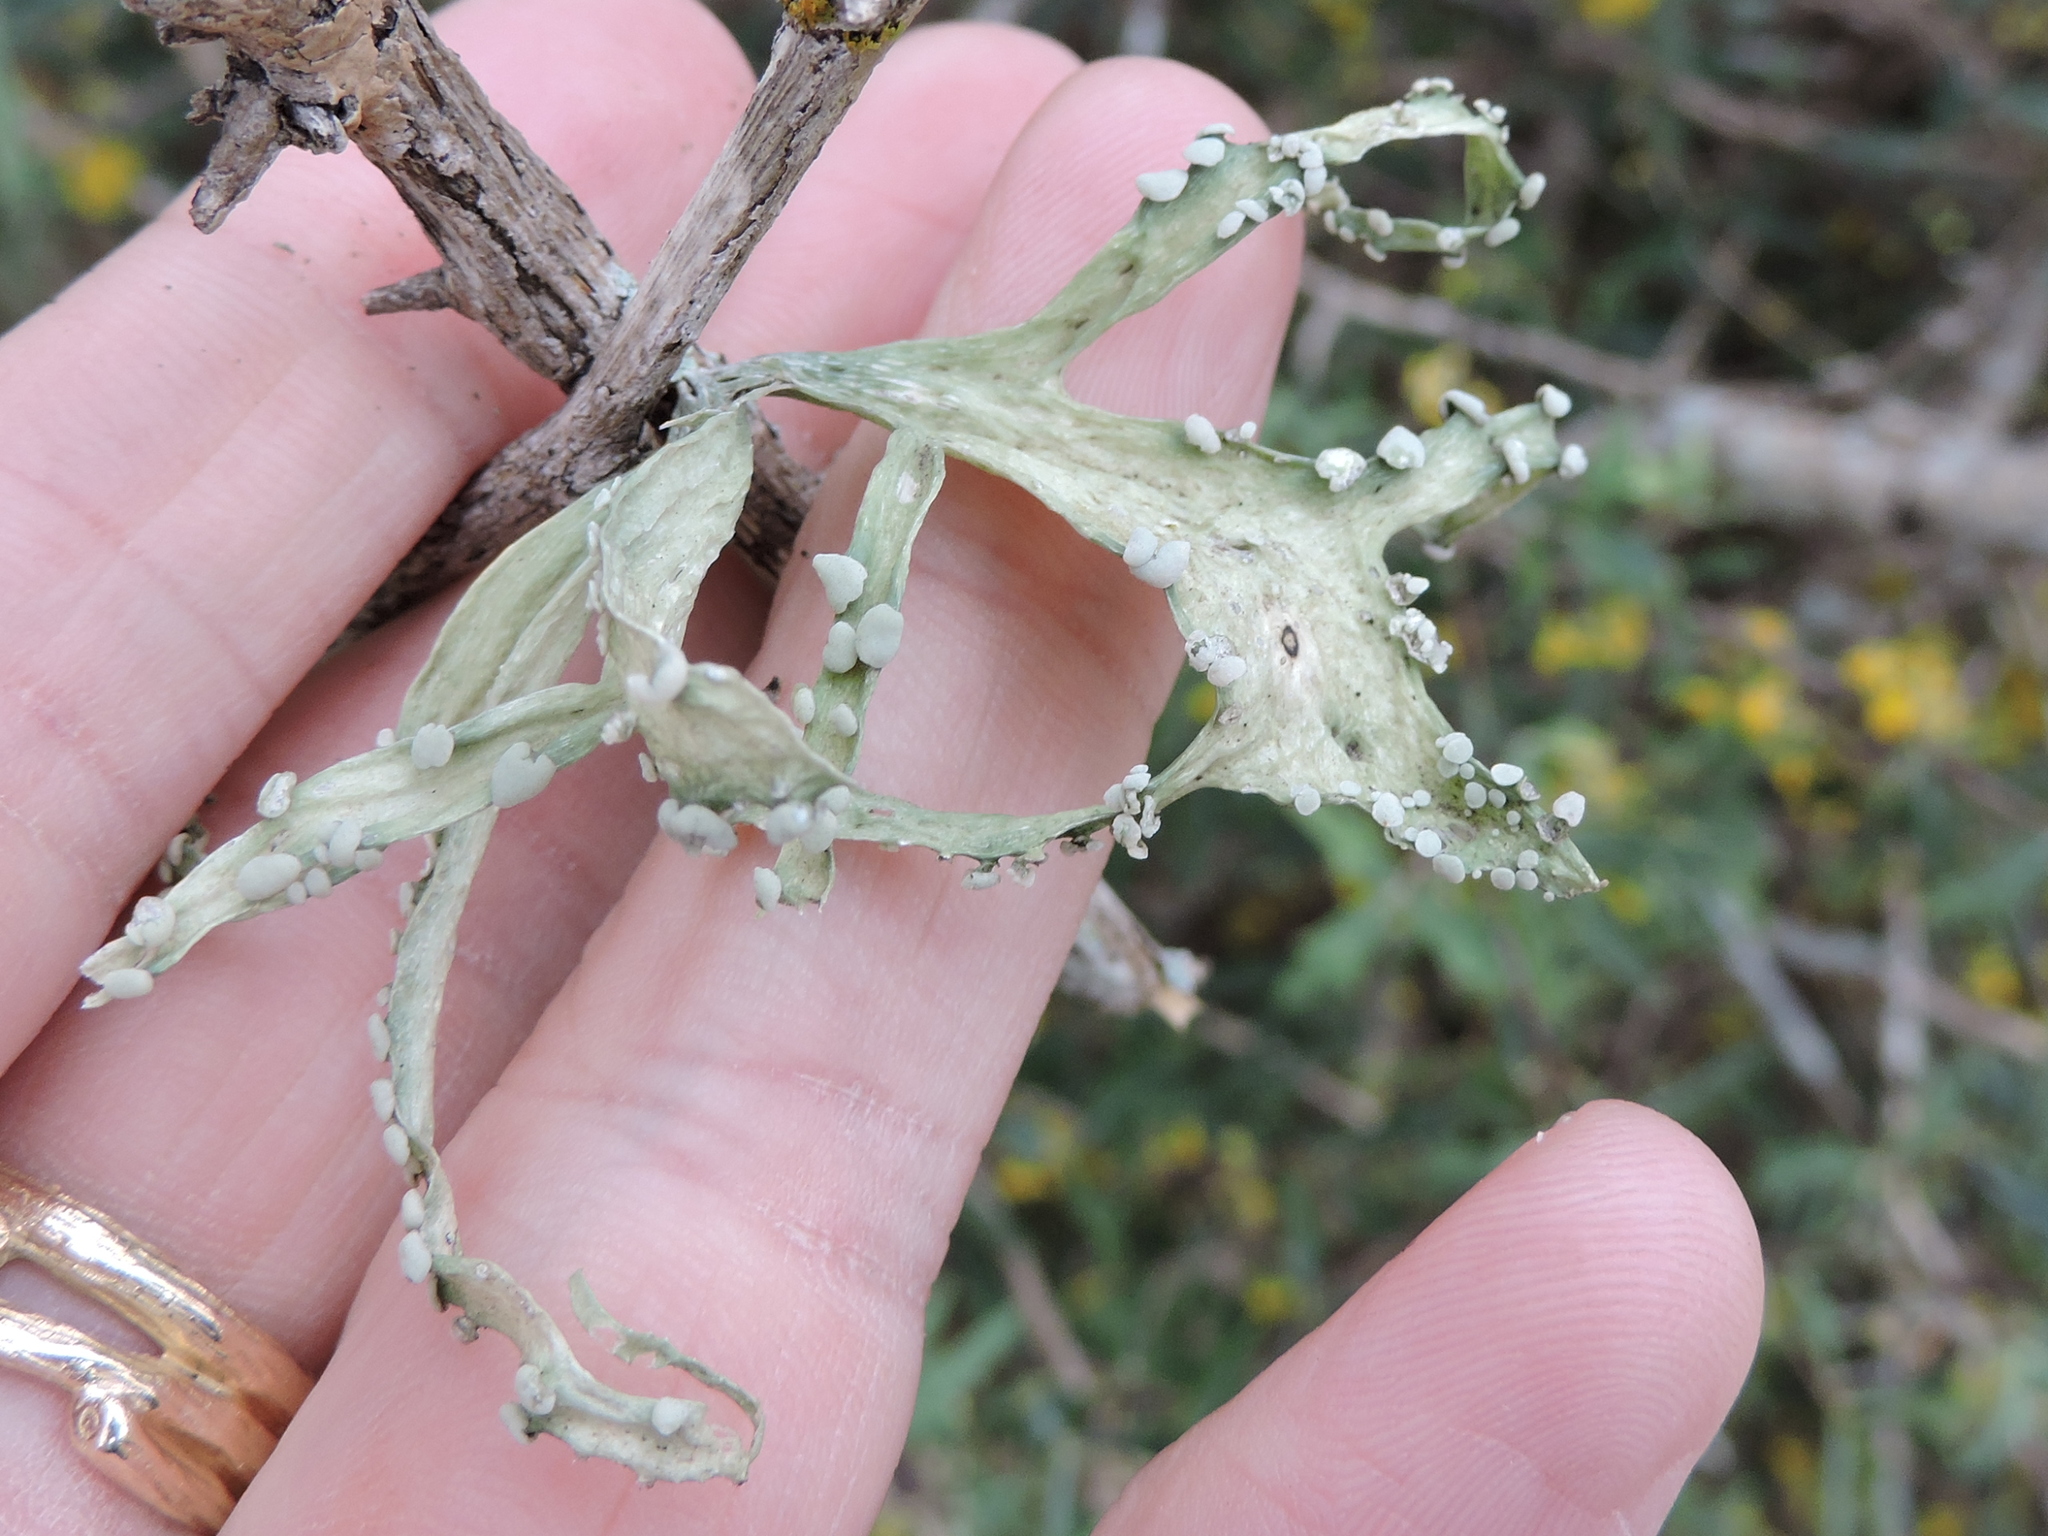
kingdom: Fungi
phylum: Ascomycota
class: Lecanoromycetes
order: Lecanorales
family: Ramalinaceae
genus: Ramalina
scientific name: Ramalina celastri
